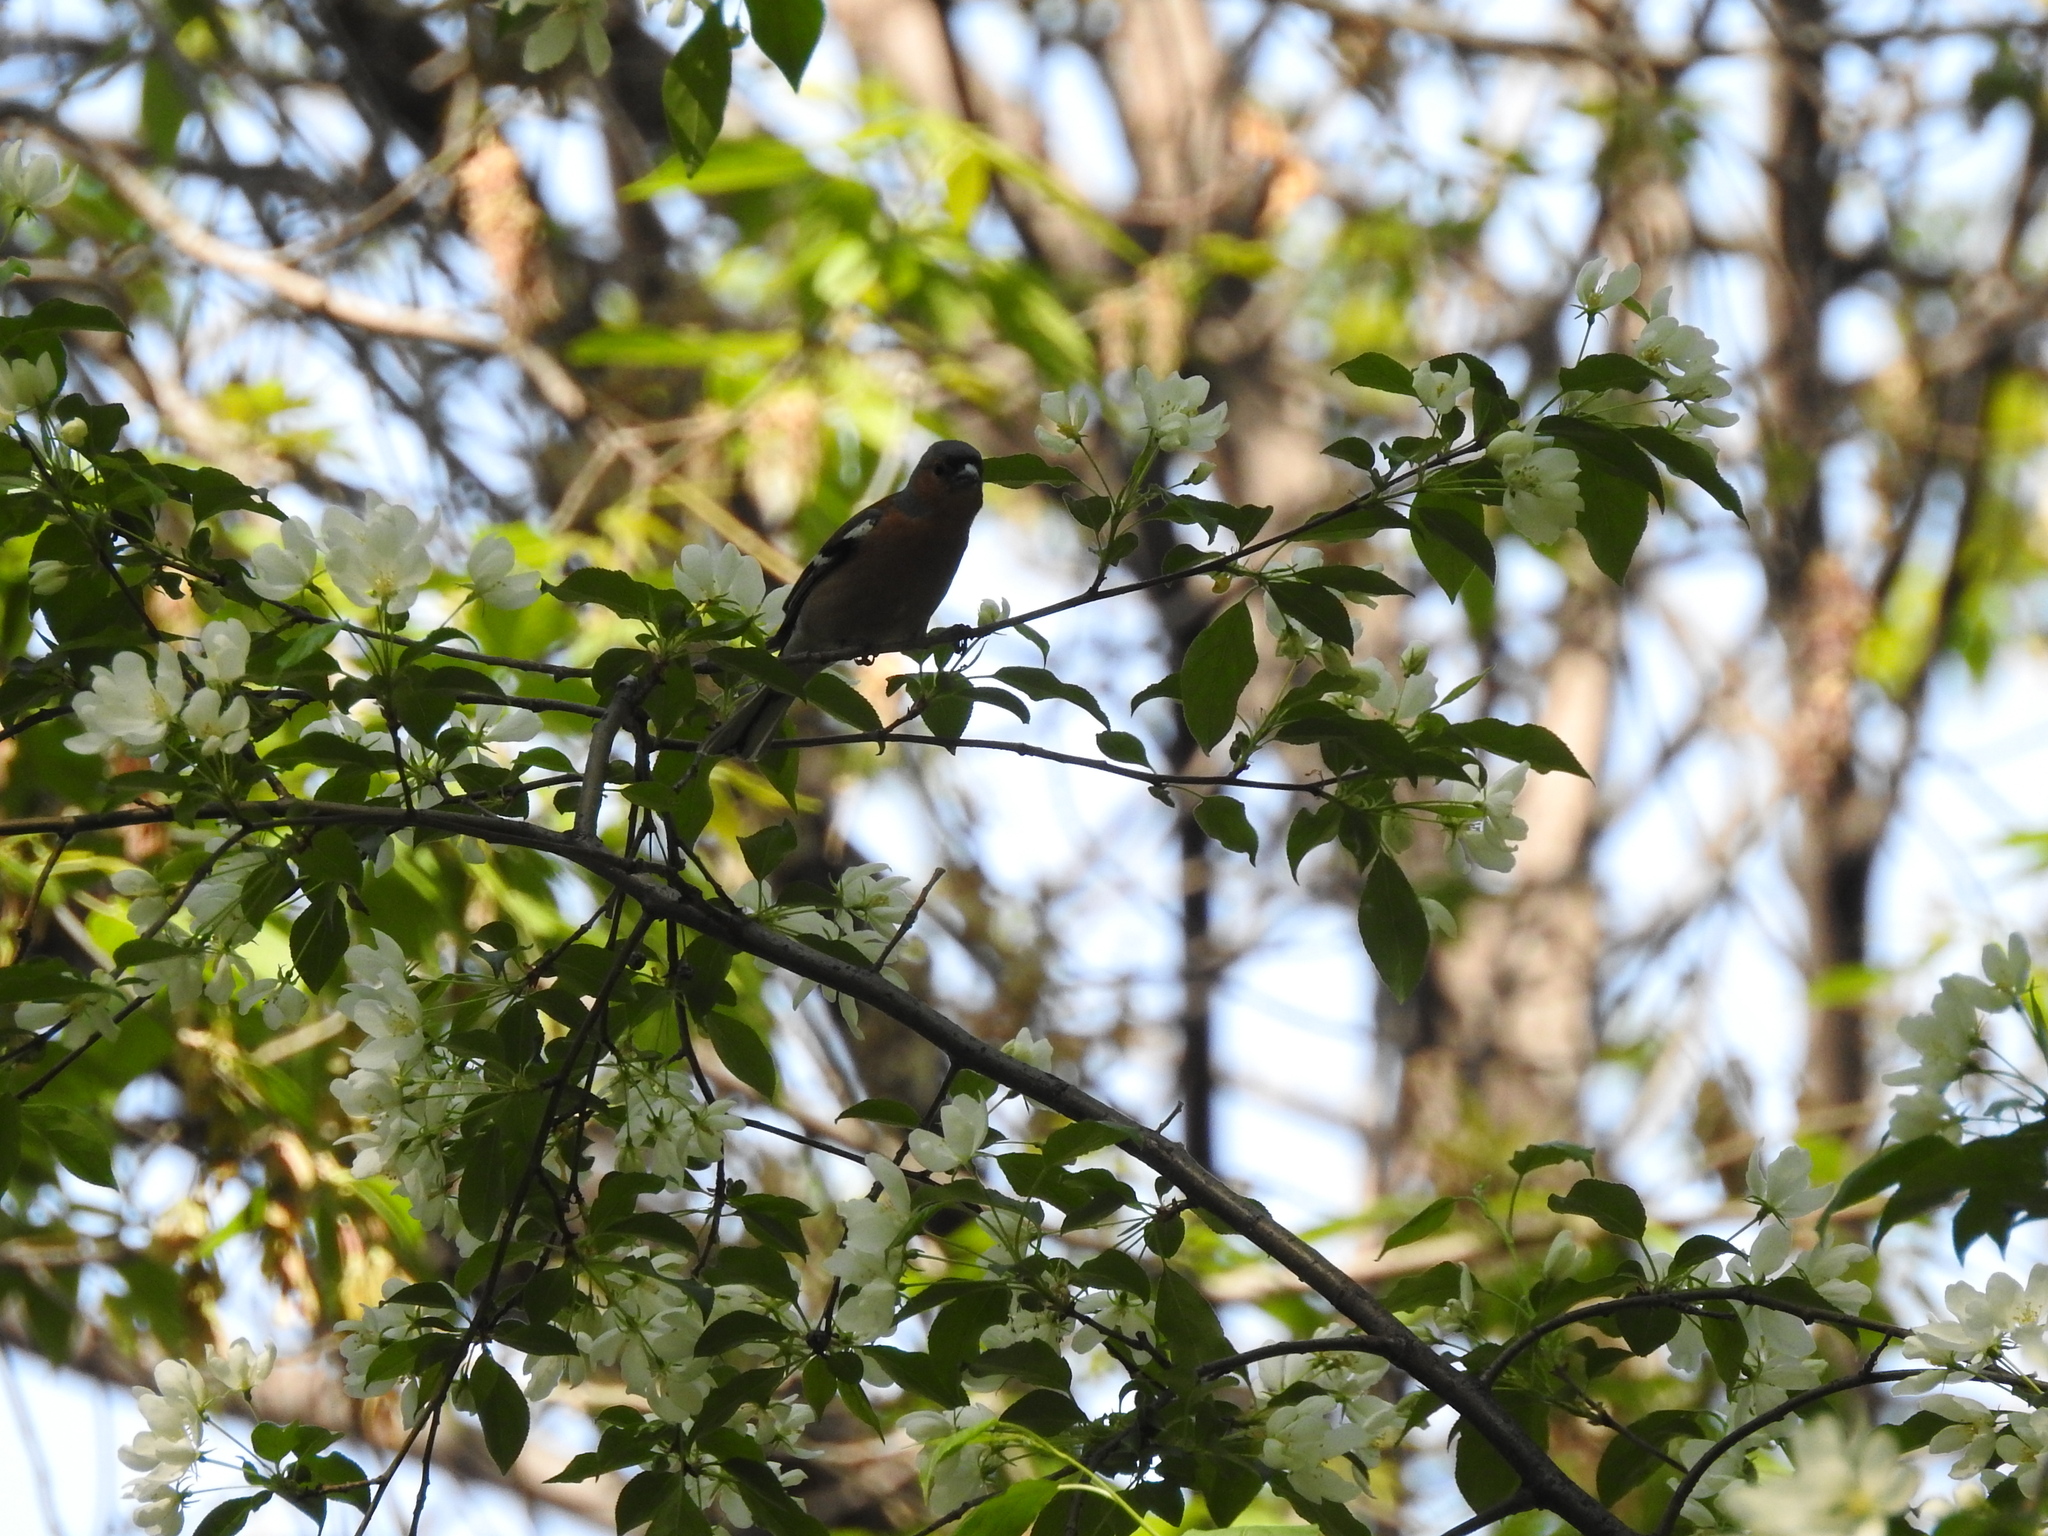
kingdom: Animalia
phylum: Chordata
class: Aves
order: Passeriformes
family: Fringillidae
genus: Fringilla
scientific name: Fringilla coelebs
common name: Common chaffinch
